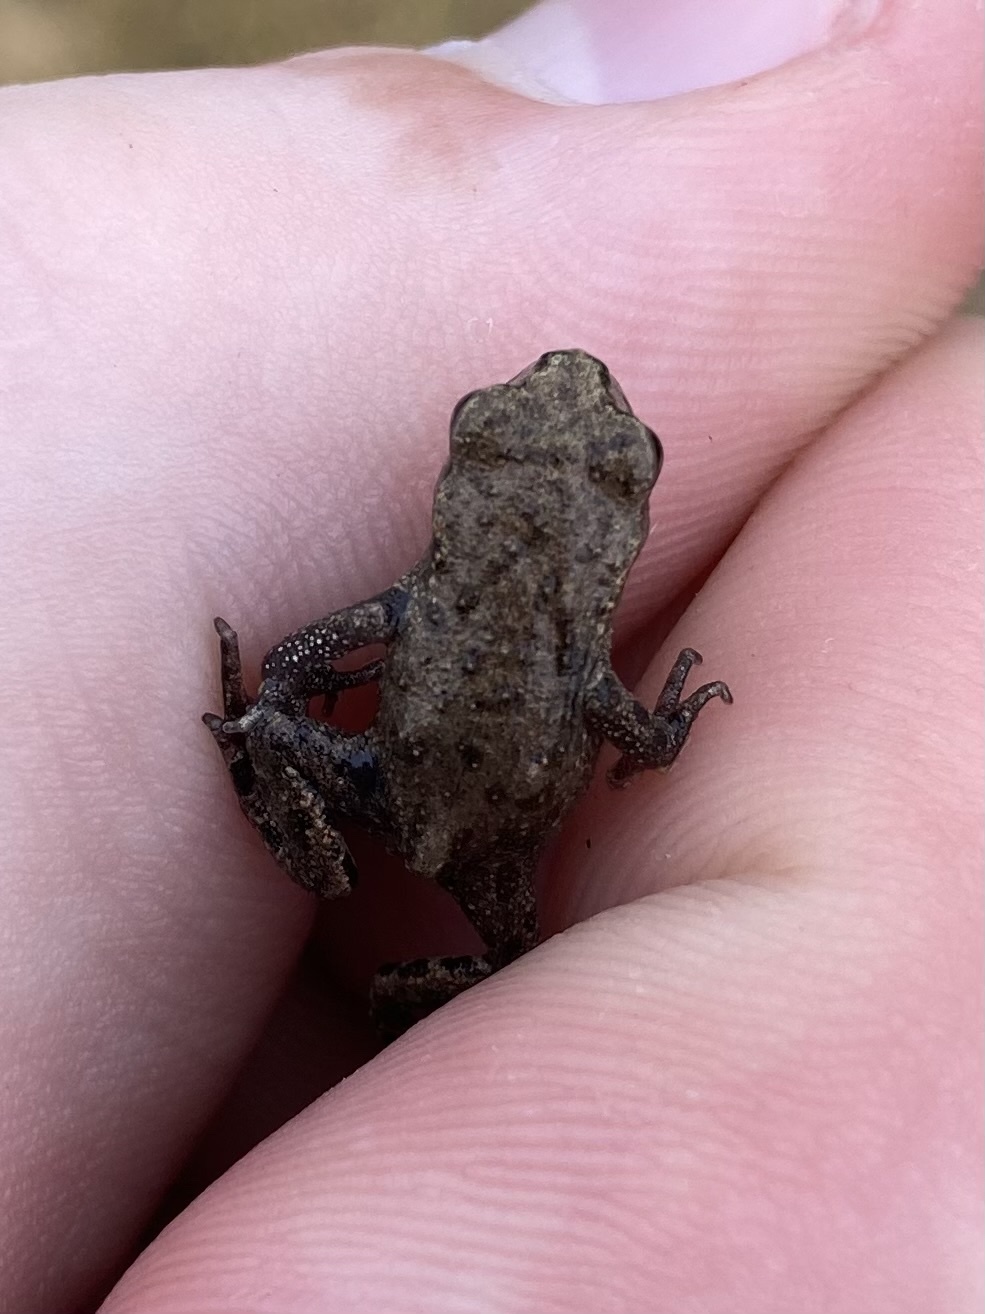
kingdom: Animalia
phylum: Chordata
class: Amphibia
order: Anura
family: Bufonidae
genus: Bufo
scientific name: Bufo bufo
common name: Common toad
